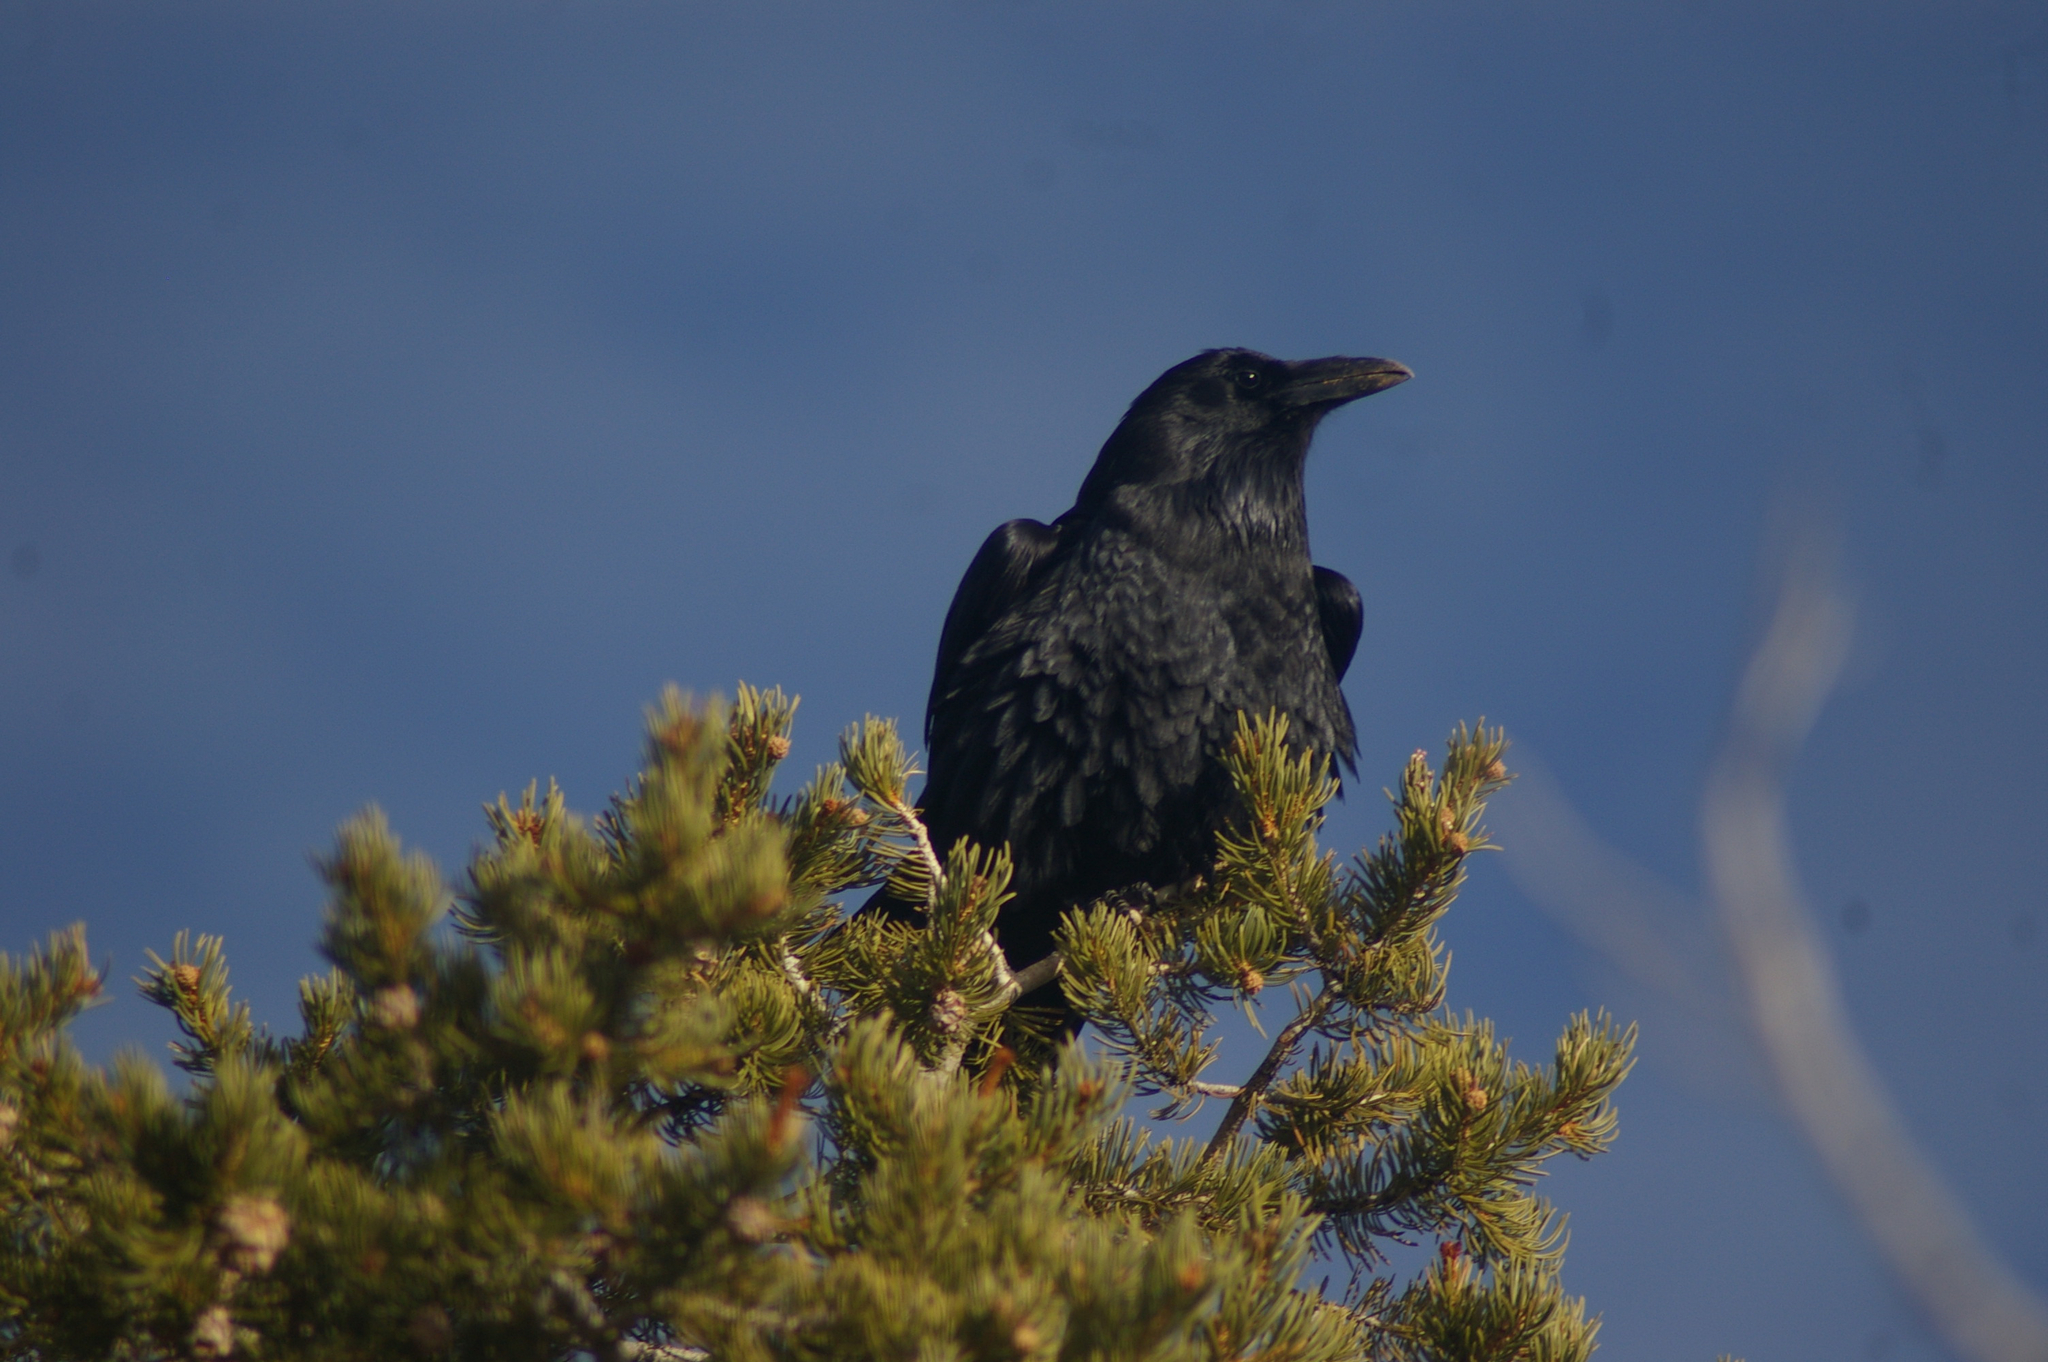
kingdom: Animalia
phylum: Chordata
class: Aves
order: Passeriformes
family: Corvidae
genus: Corvus
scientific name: Corvus corax
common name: Common raven
